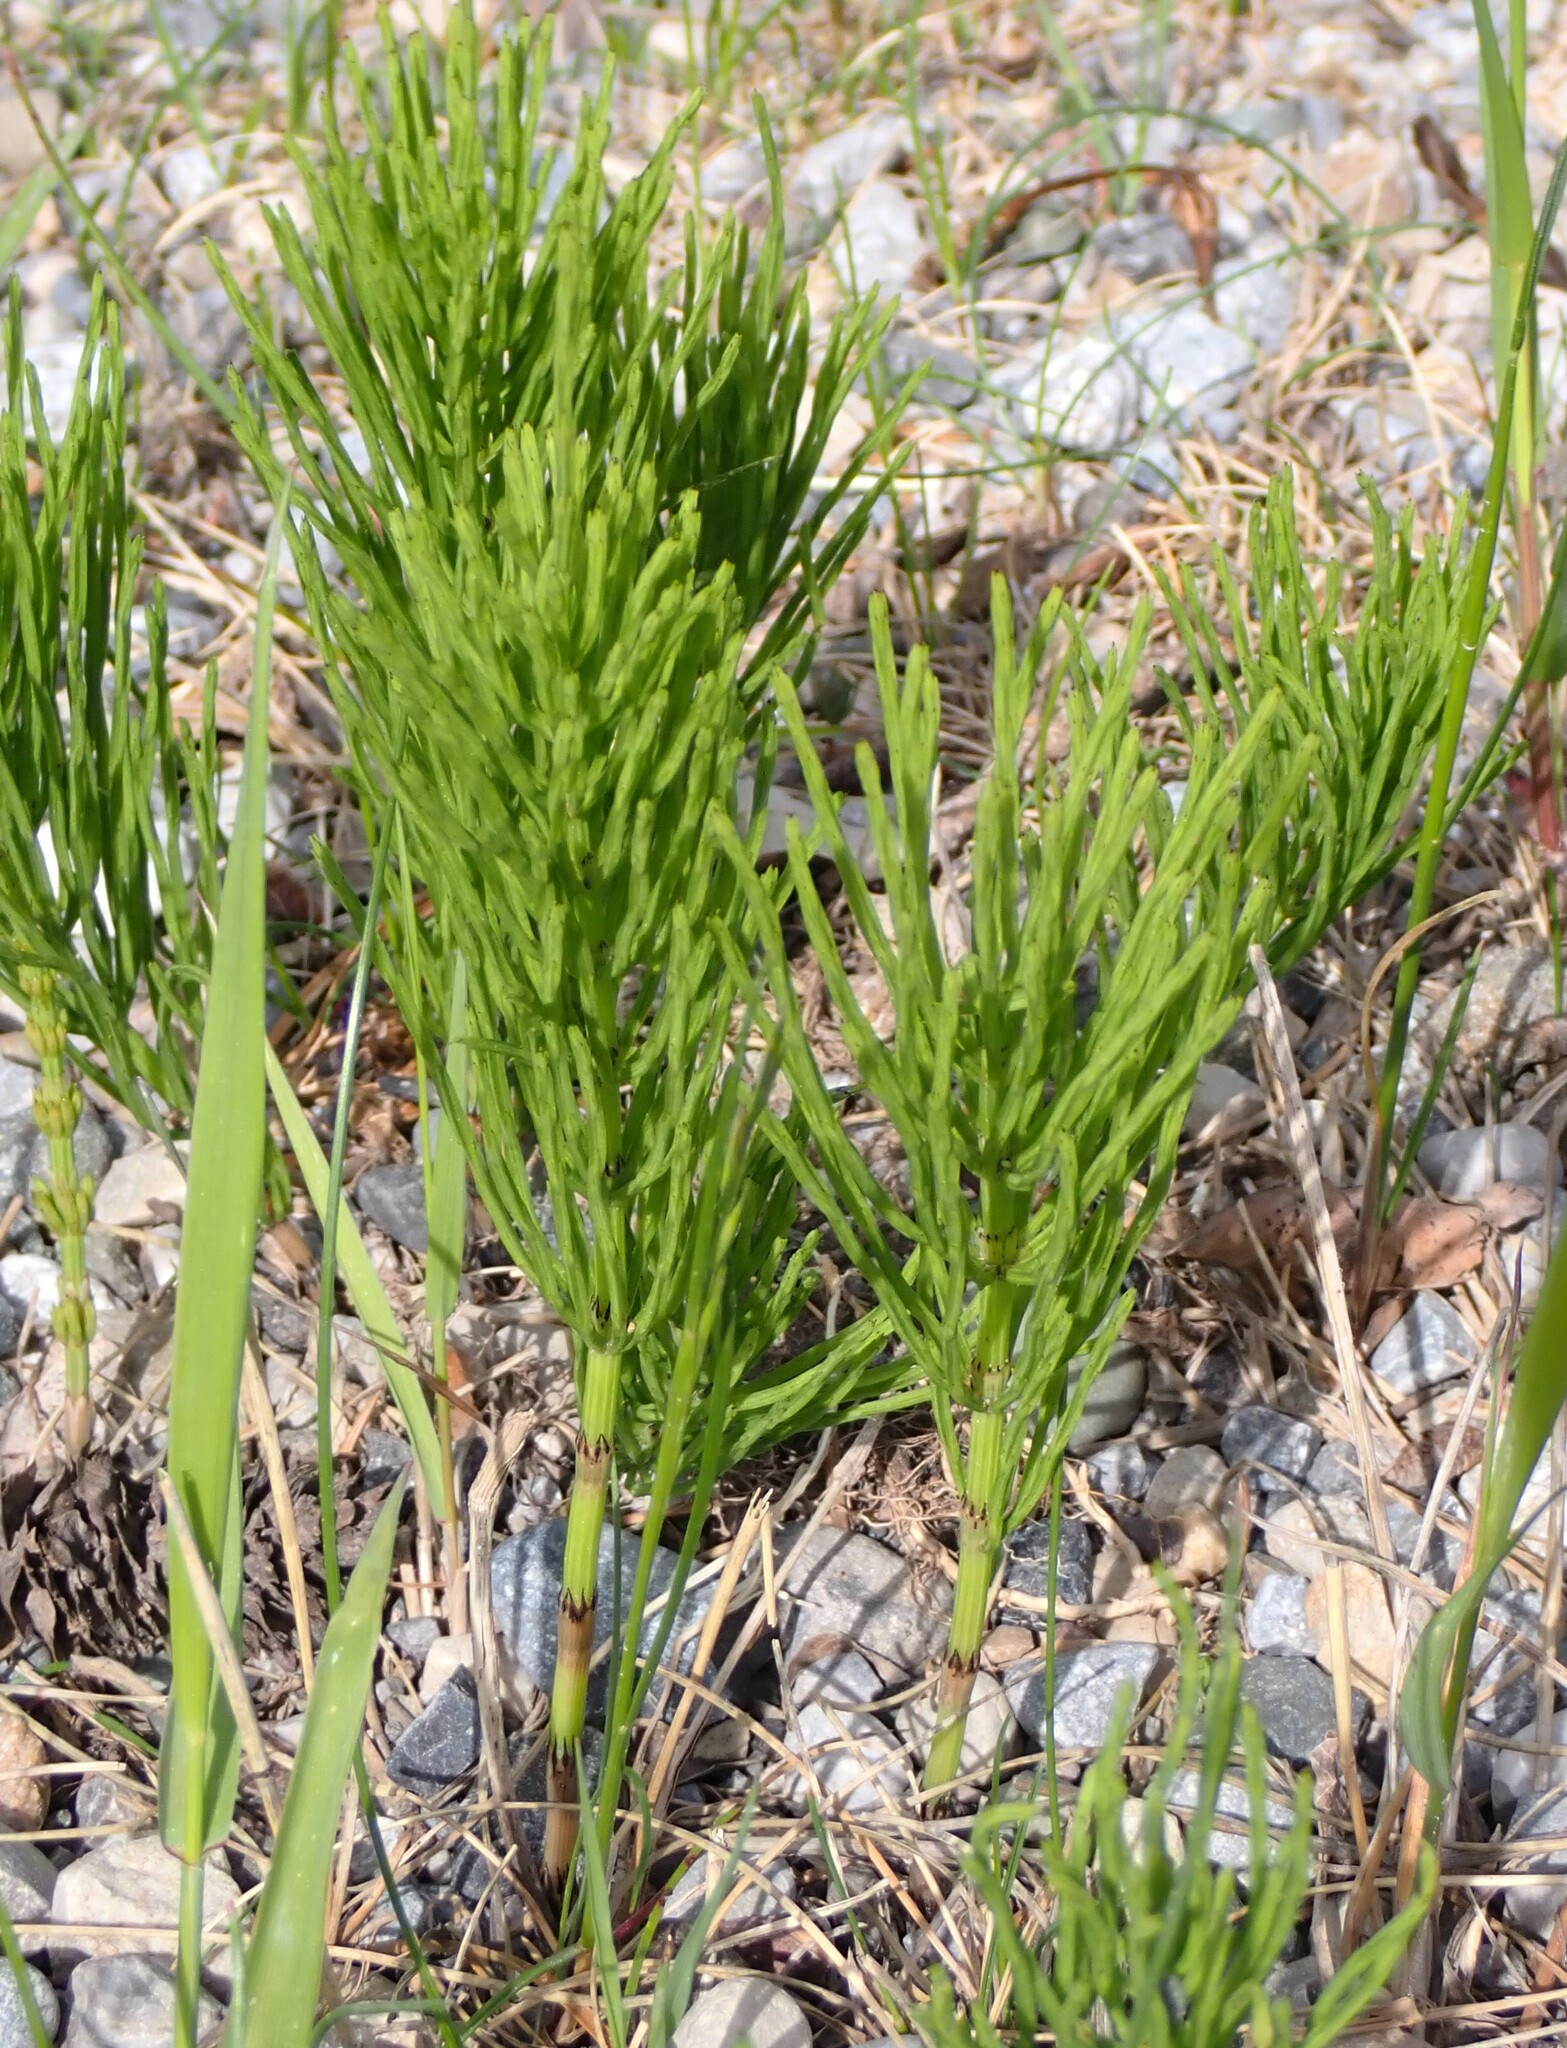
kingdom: Plantae
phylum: Tracheophyta
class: Polypodiopsida
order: Equisetales
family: Equisetaceae
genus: Equisetum
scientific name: Equisetum arvense
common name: Field horsetail
